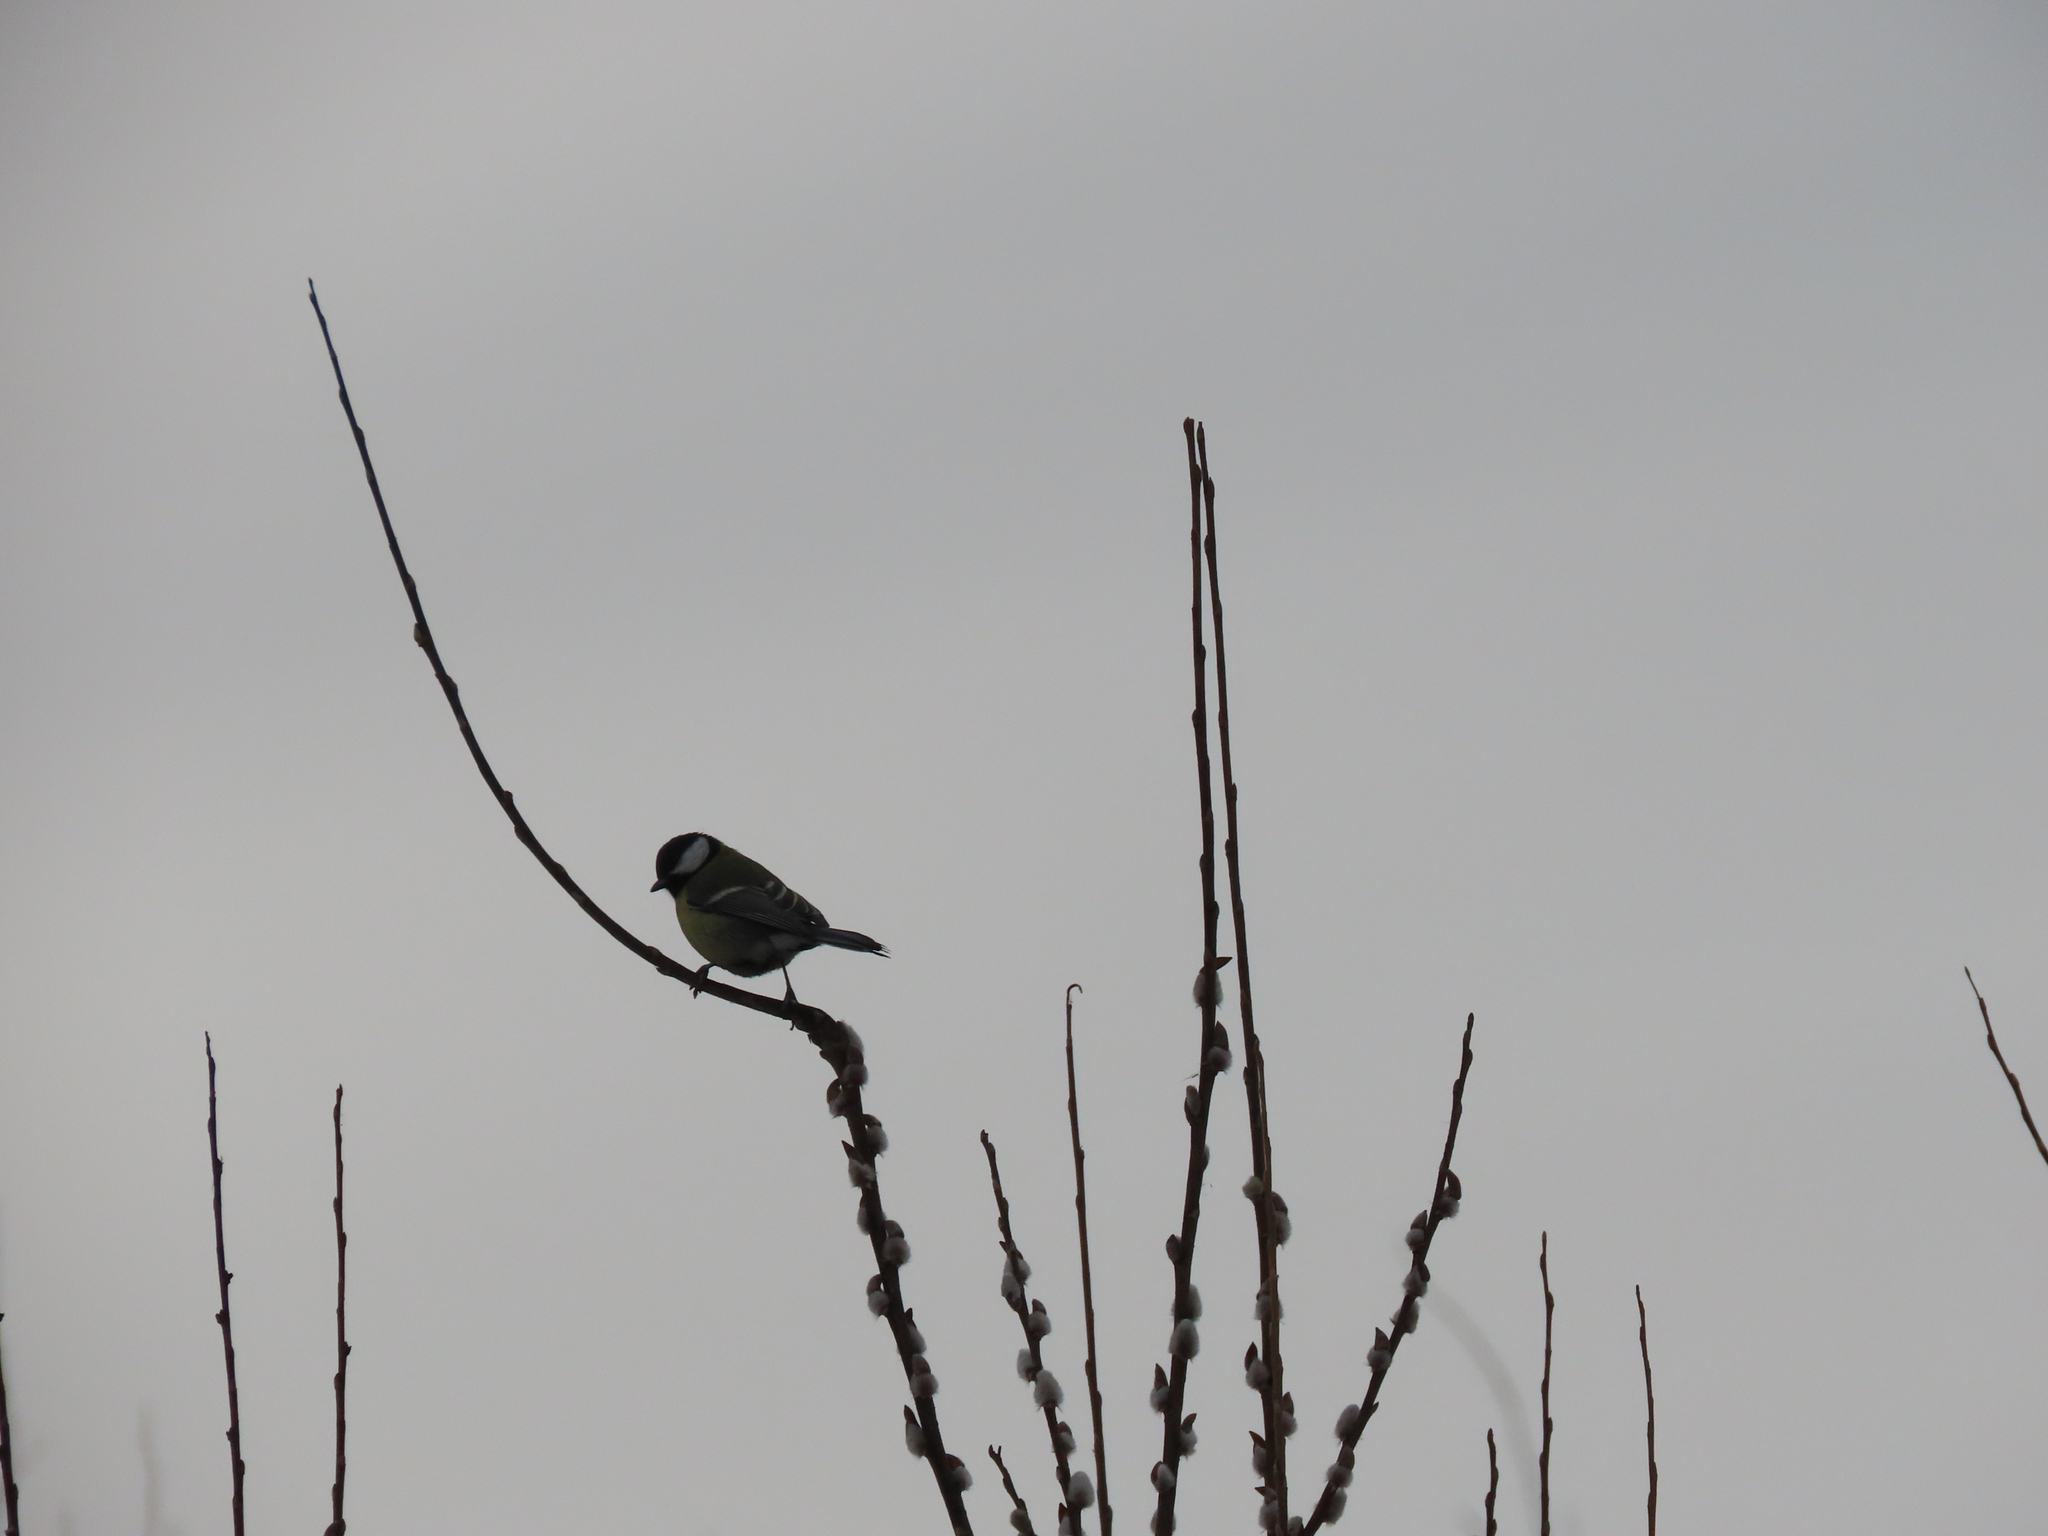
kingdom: Animalia
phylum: Chordata
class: Aves
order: Passeriformes
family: Paridae
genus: Parus
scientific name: Parus major
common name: Great tit
